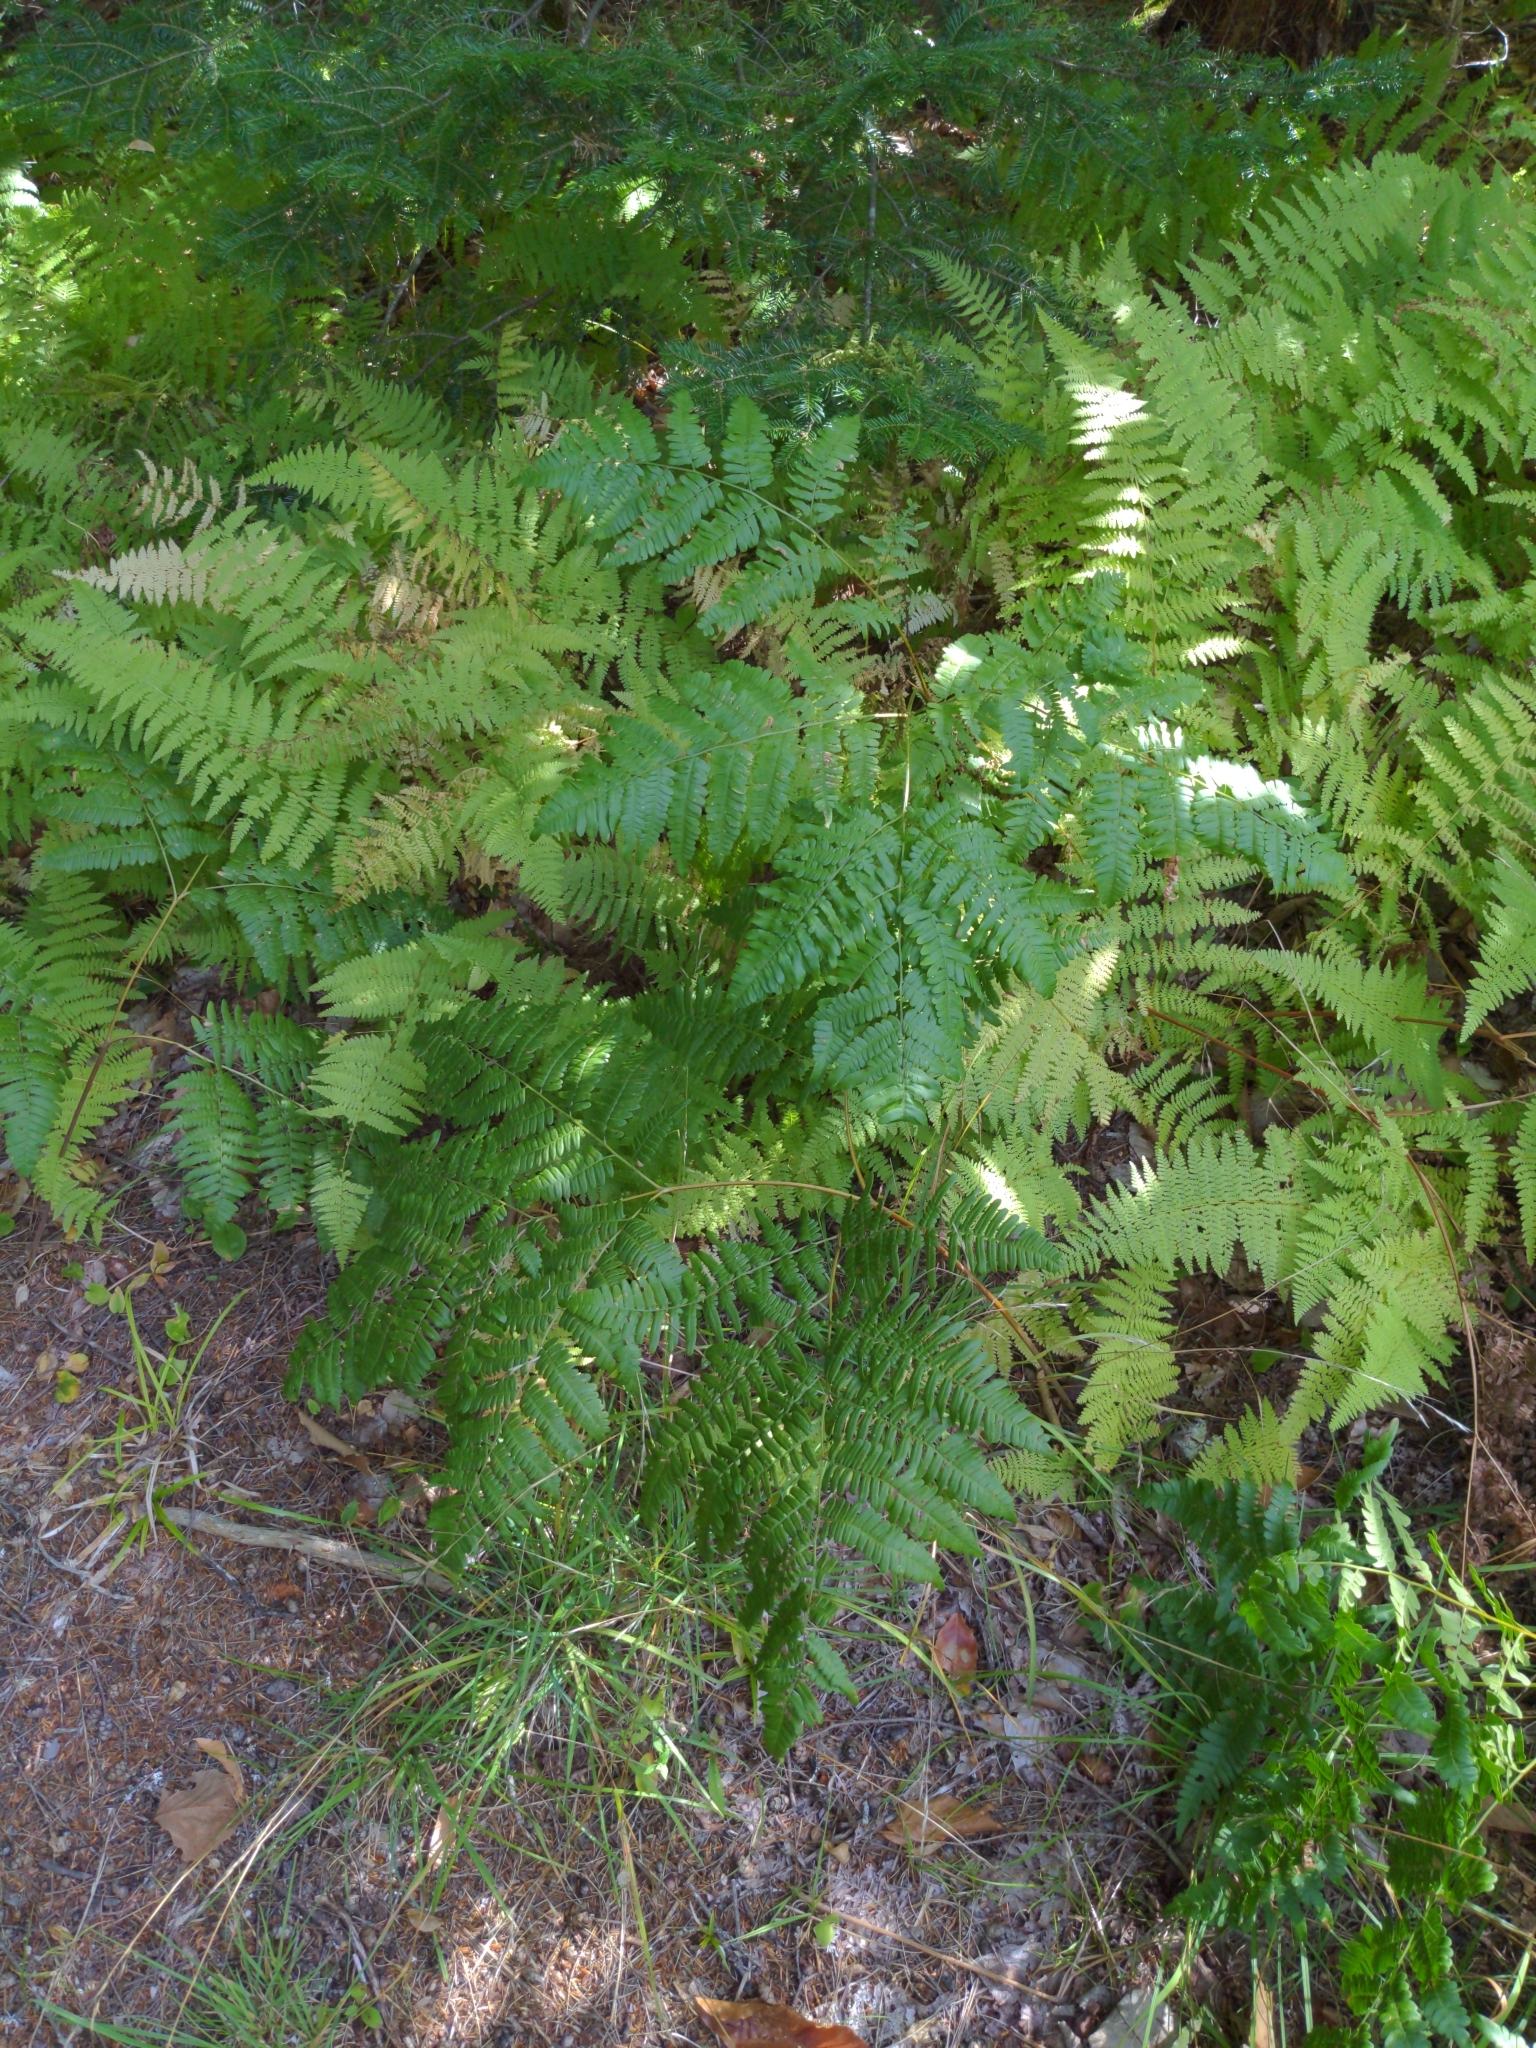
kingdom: Plantae
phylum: Tracheophyta
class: Polypodiopsida
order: Polypodiales
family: Dennstaedtiaceae
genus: Pteridium
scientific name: Pteridium aquilinum
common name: Bracken
